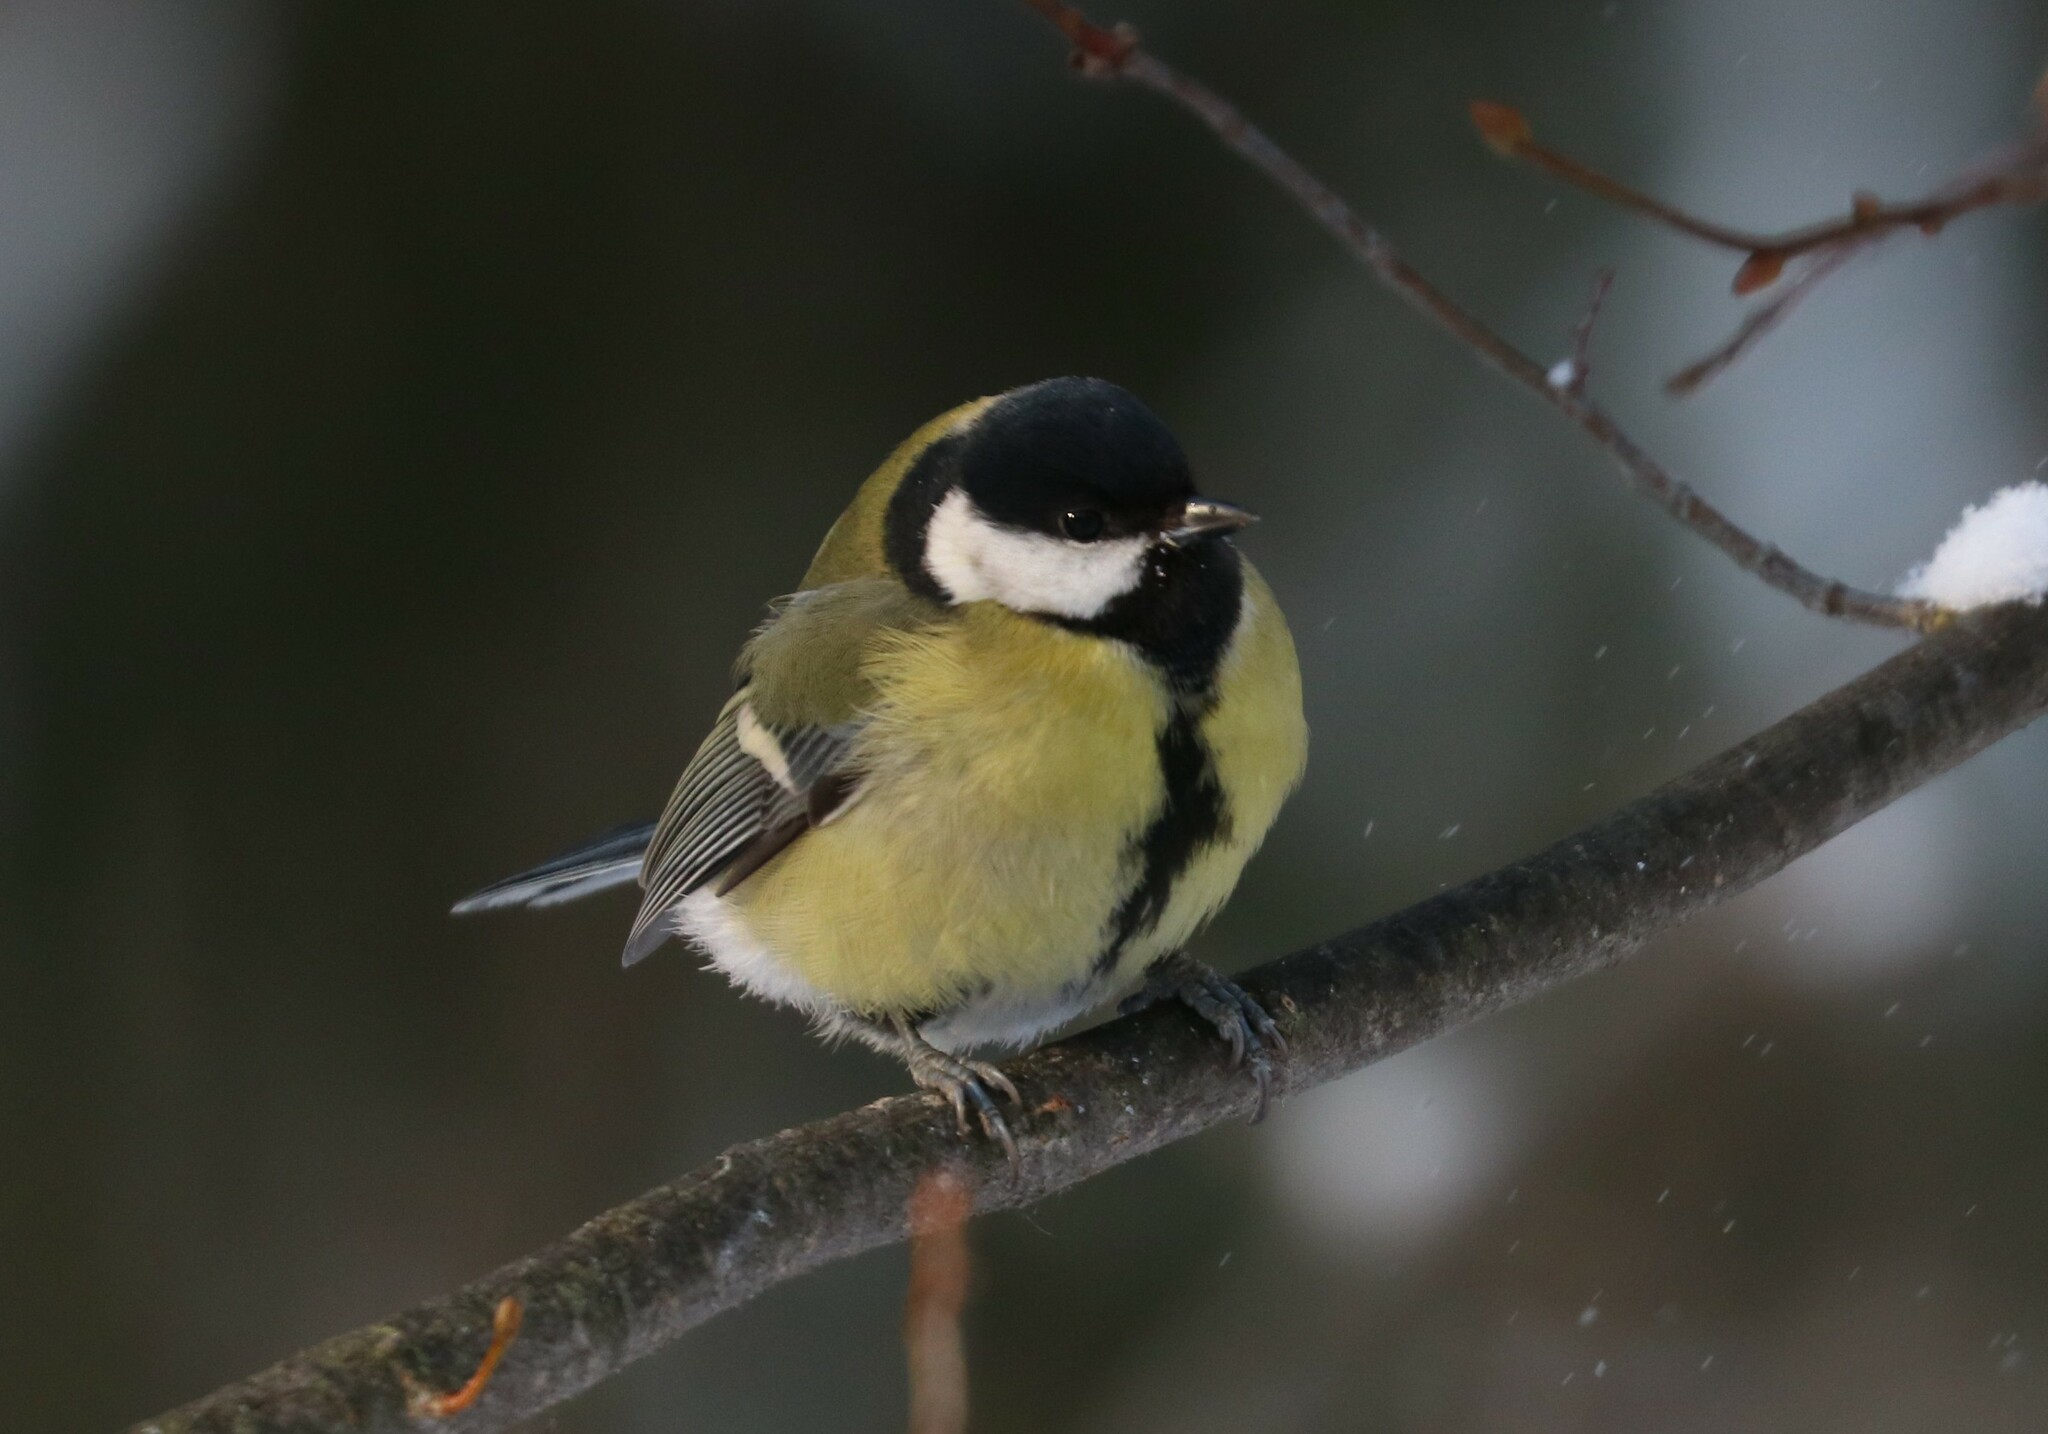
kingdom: Animalia
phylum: Chordata
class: Aves
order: Passeriformes
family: Paridae
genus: Parus
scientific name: Parus major
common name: Great tit
